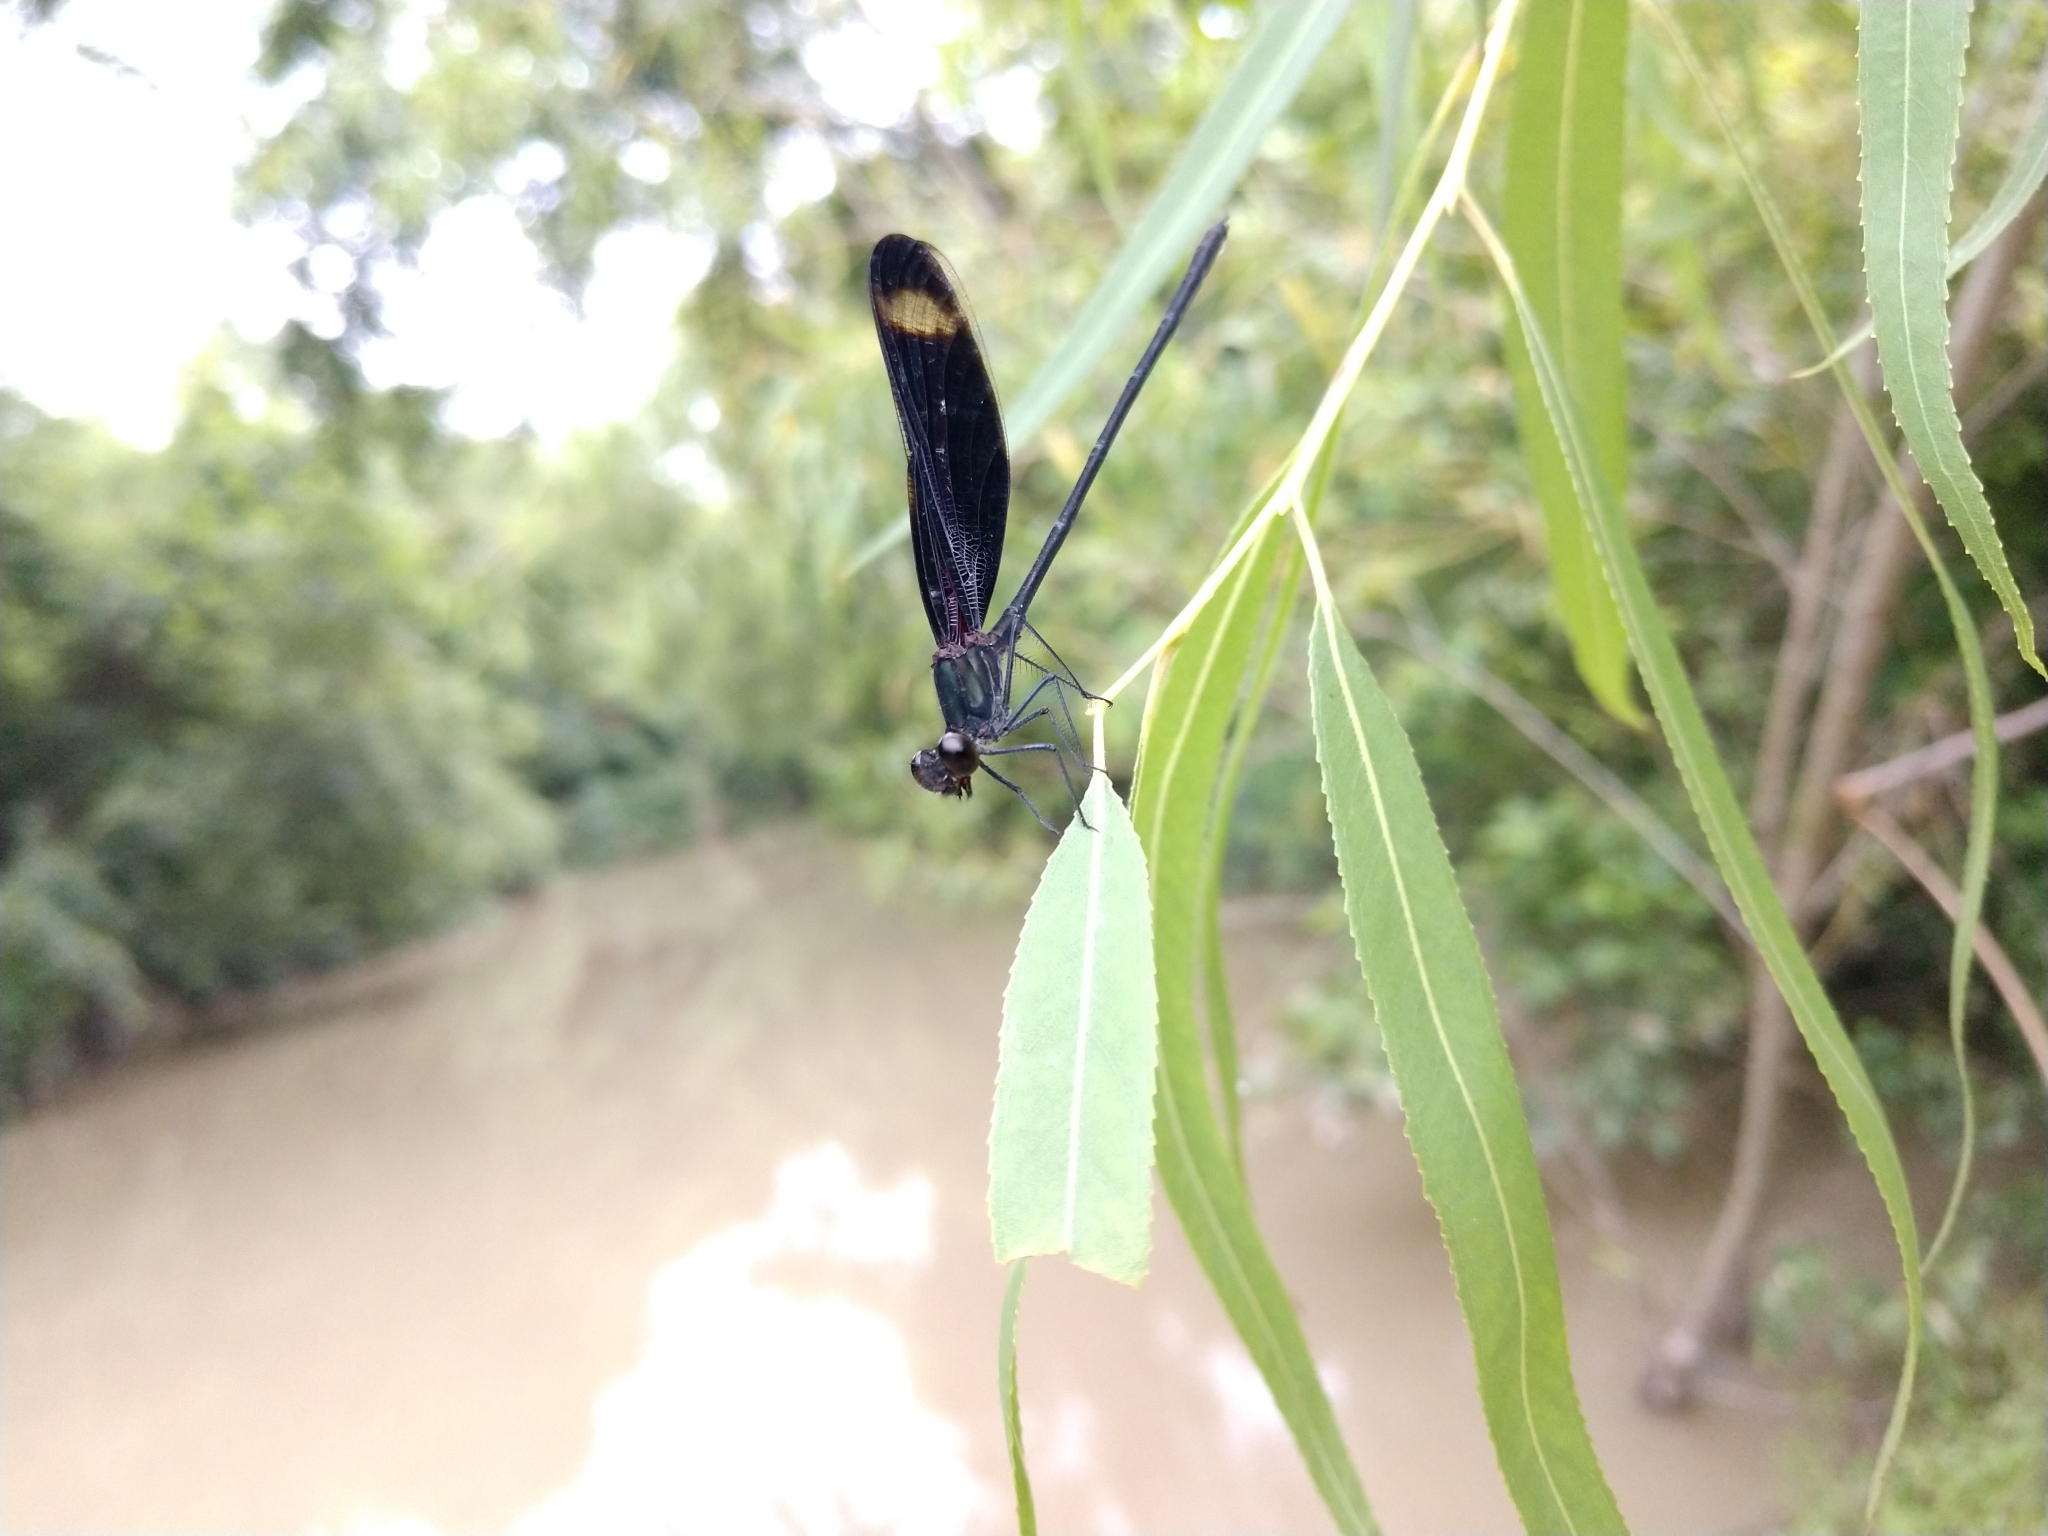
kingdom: Animalia
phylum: Arthropoda
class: Insecta
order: Odonata
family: Calopterygidae
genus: Hetaerina
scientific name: Hetaerina titia
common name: Smoky rubyspot
